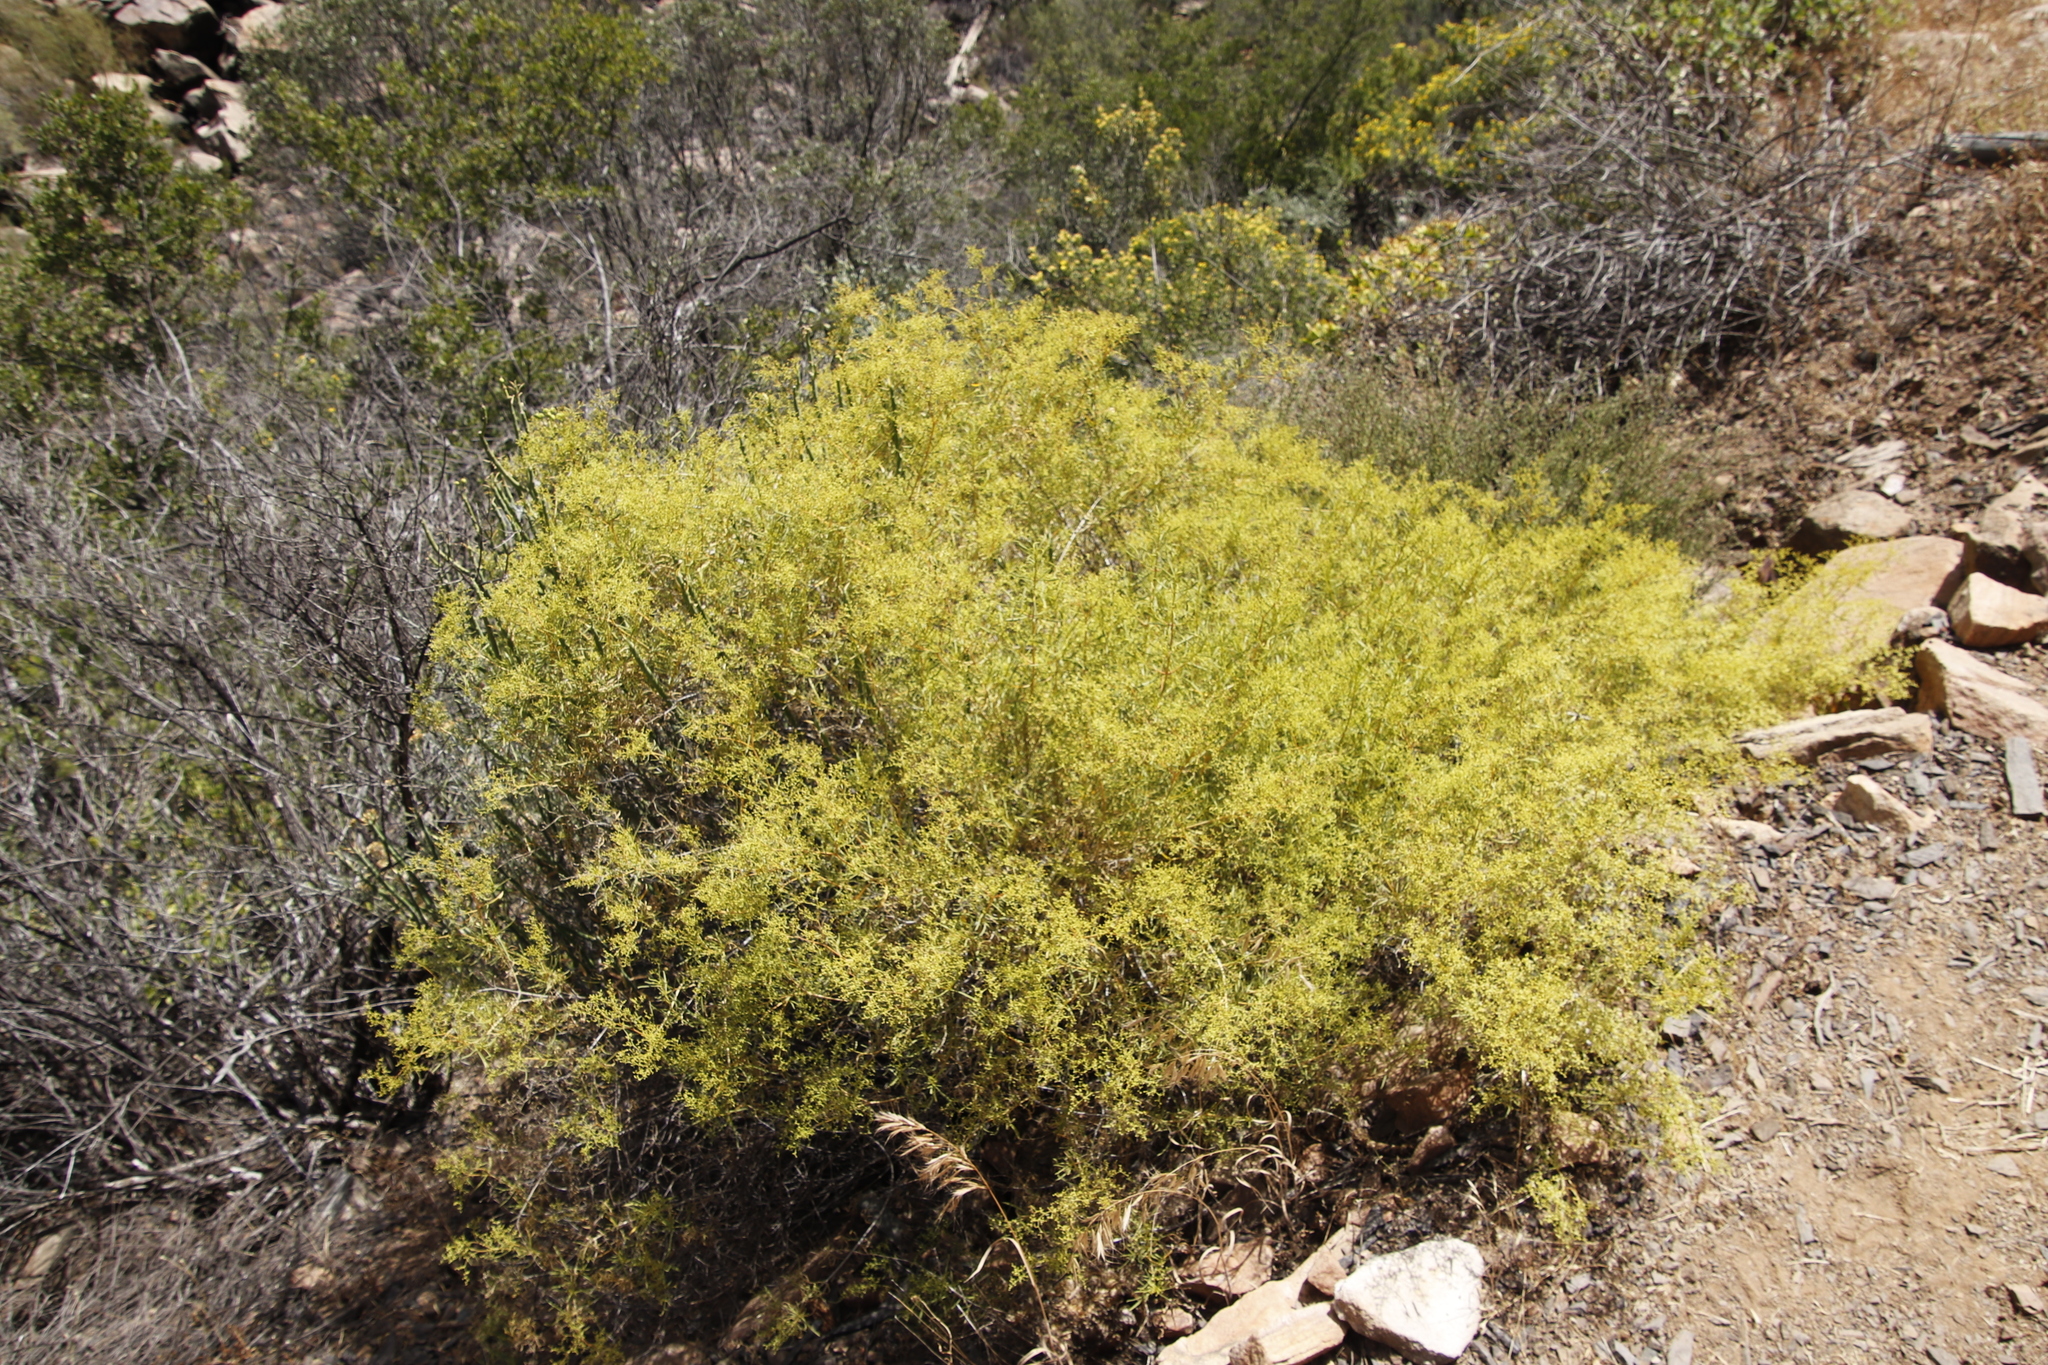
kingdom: Plantae
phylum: Tracheophyta
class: Magnoliopsida
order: Caryophyllales
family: Aizoaceae
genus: Aizoon
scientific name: Aizoon africanum
